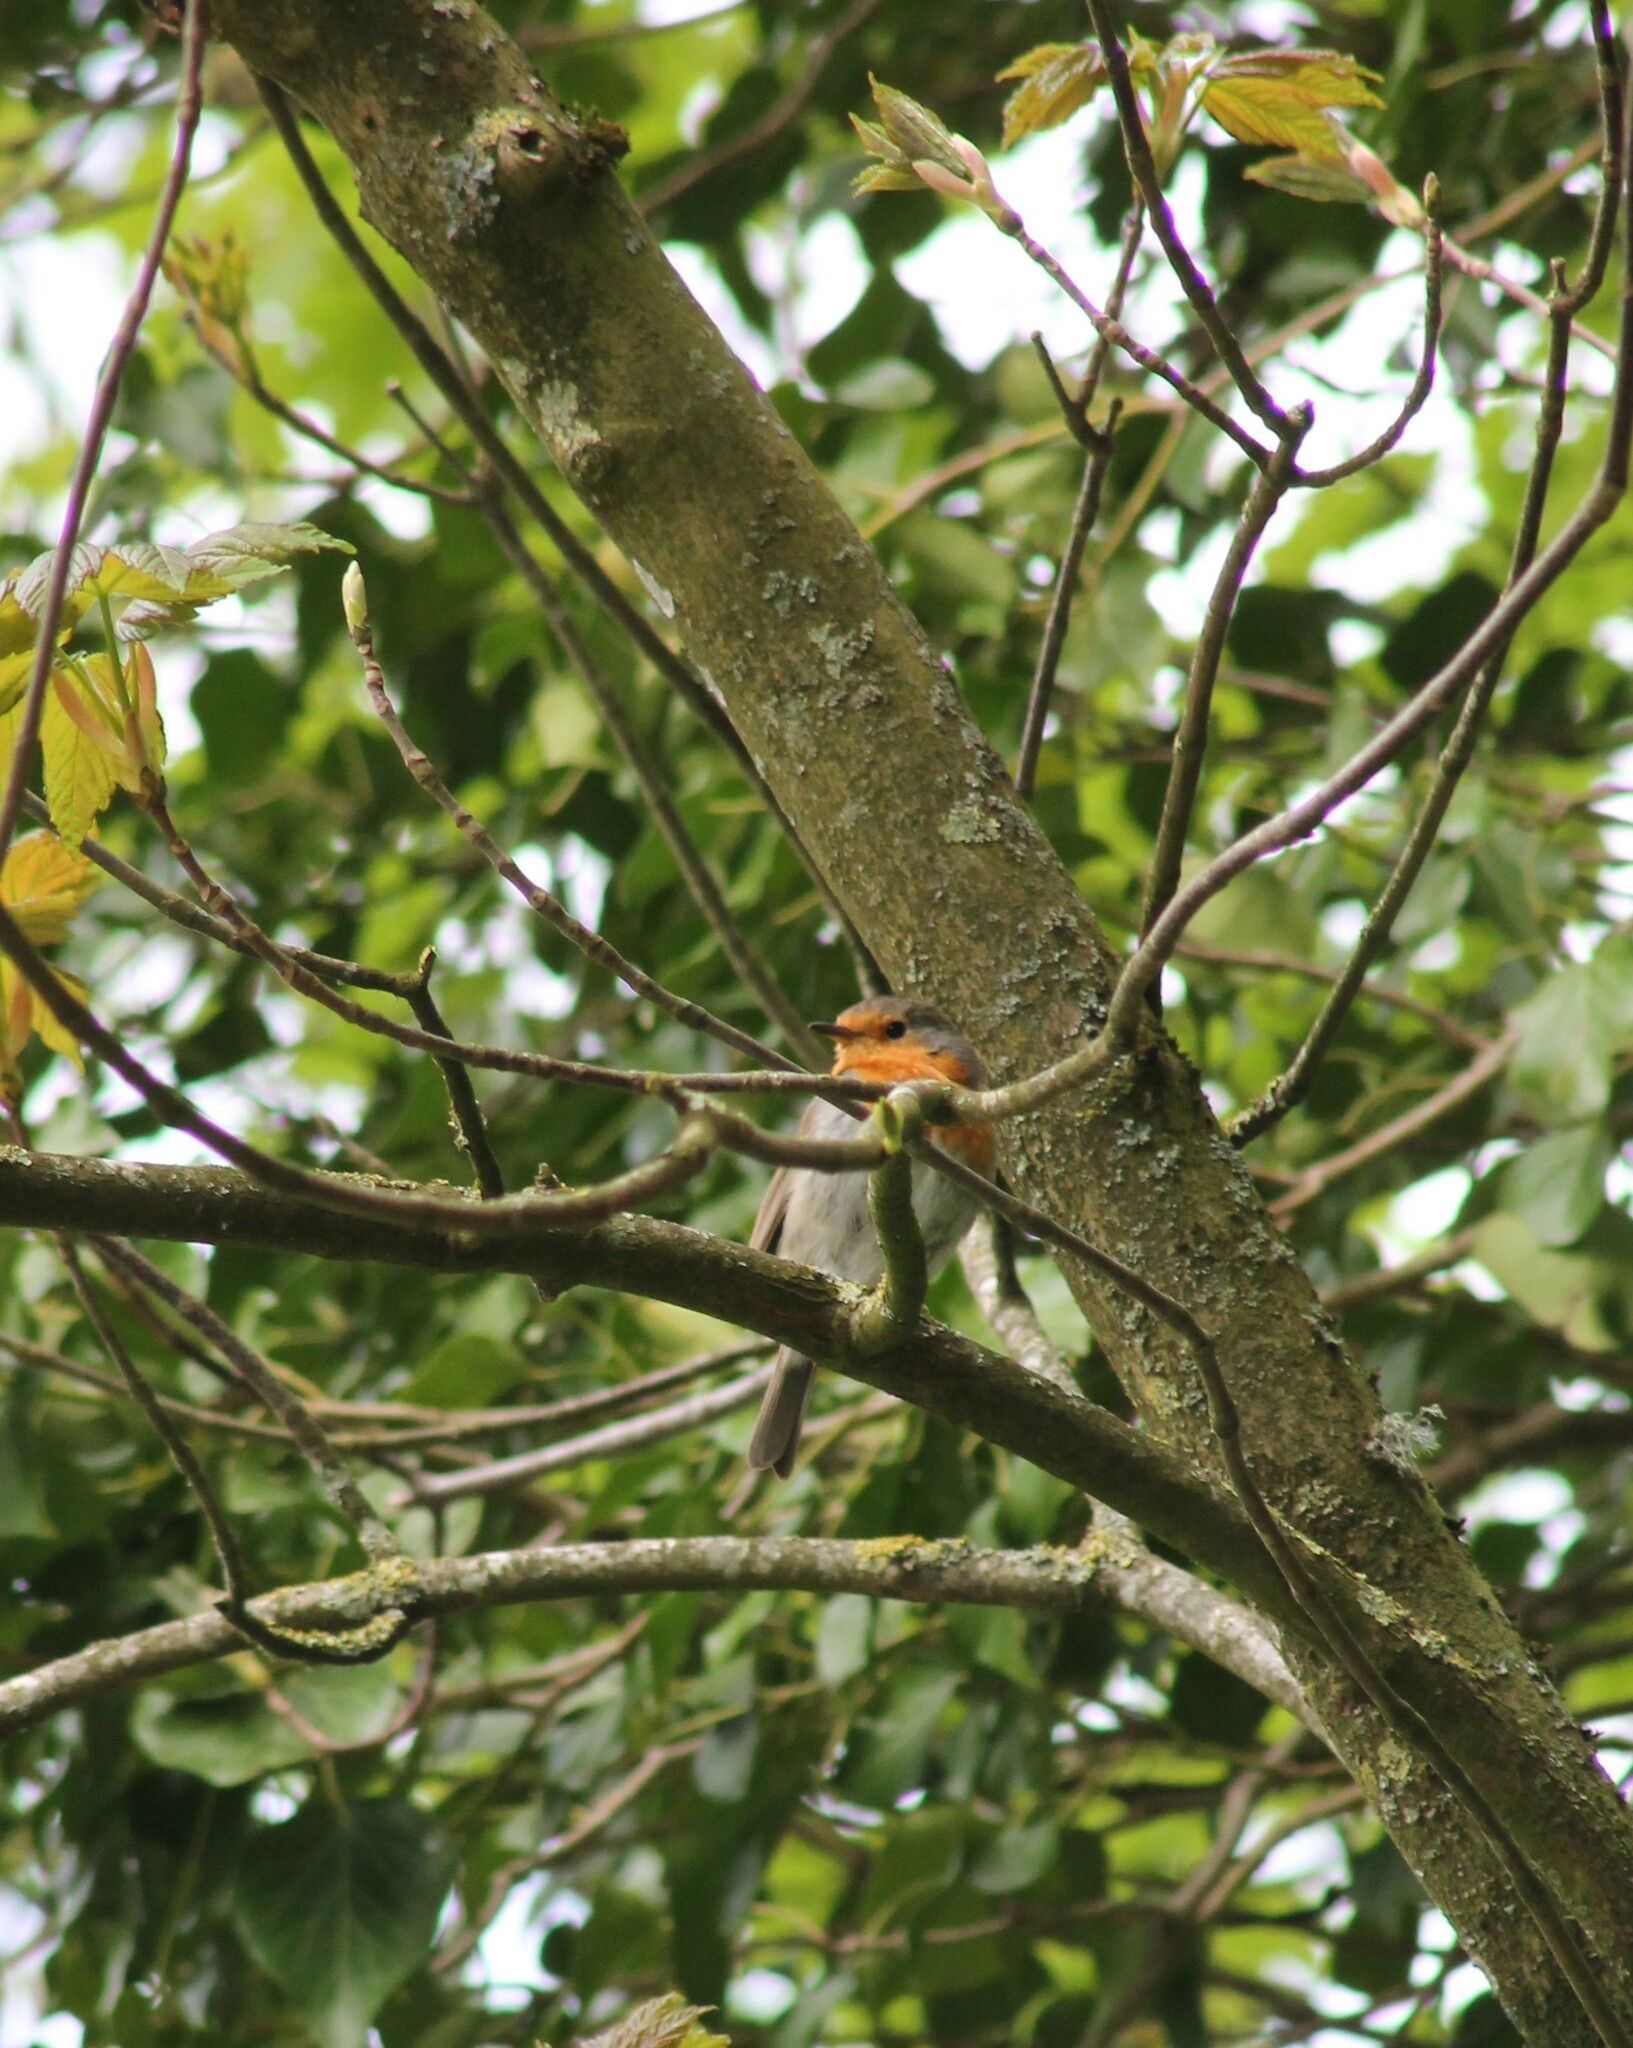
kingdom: Animalia
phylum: Chordata
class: Aves
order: Passeriformes
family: Muscicapidae
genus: Erithacus
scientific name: Erithacus rubecula
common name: European robin
